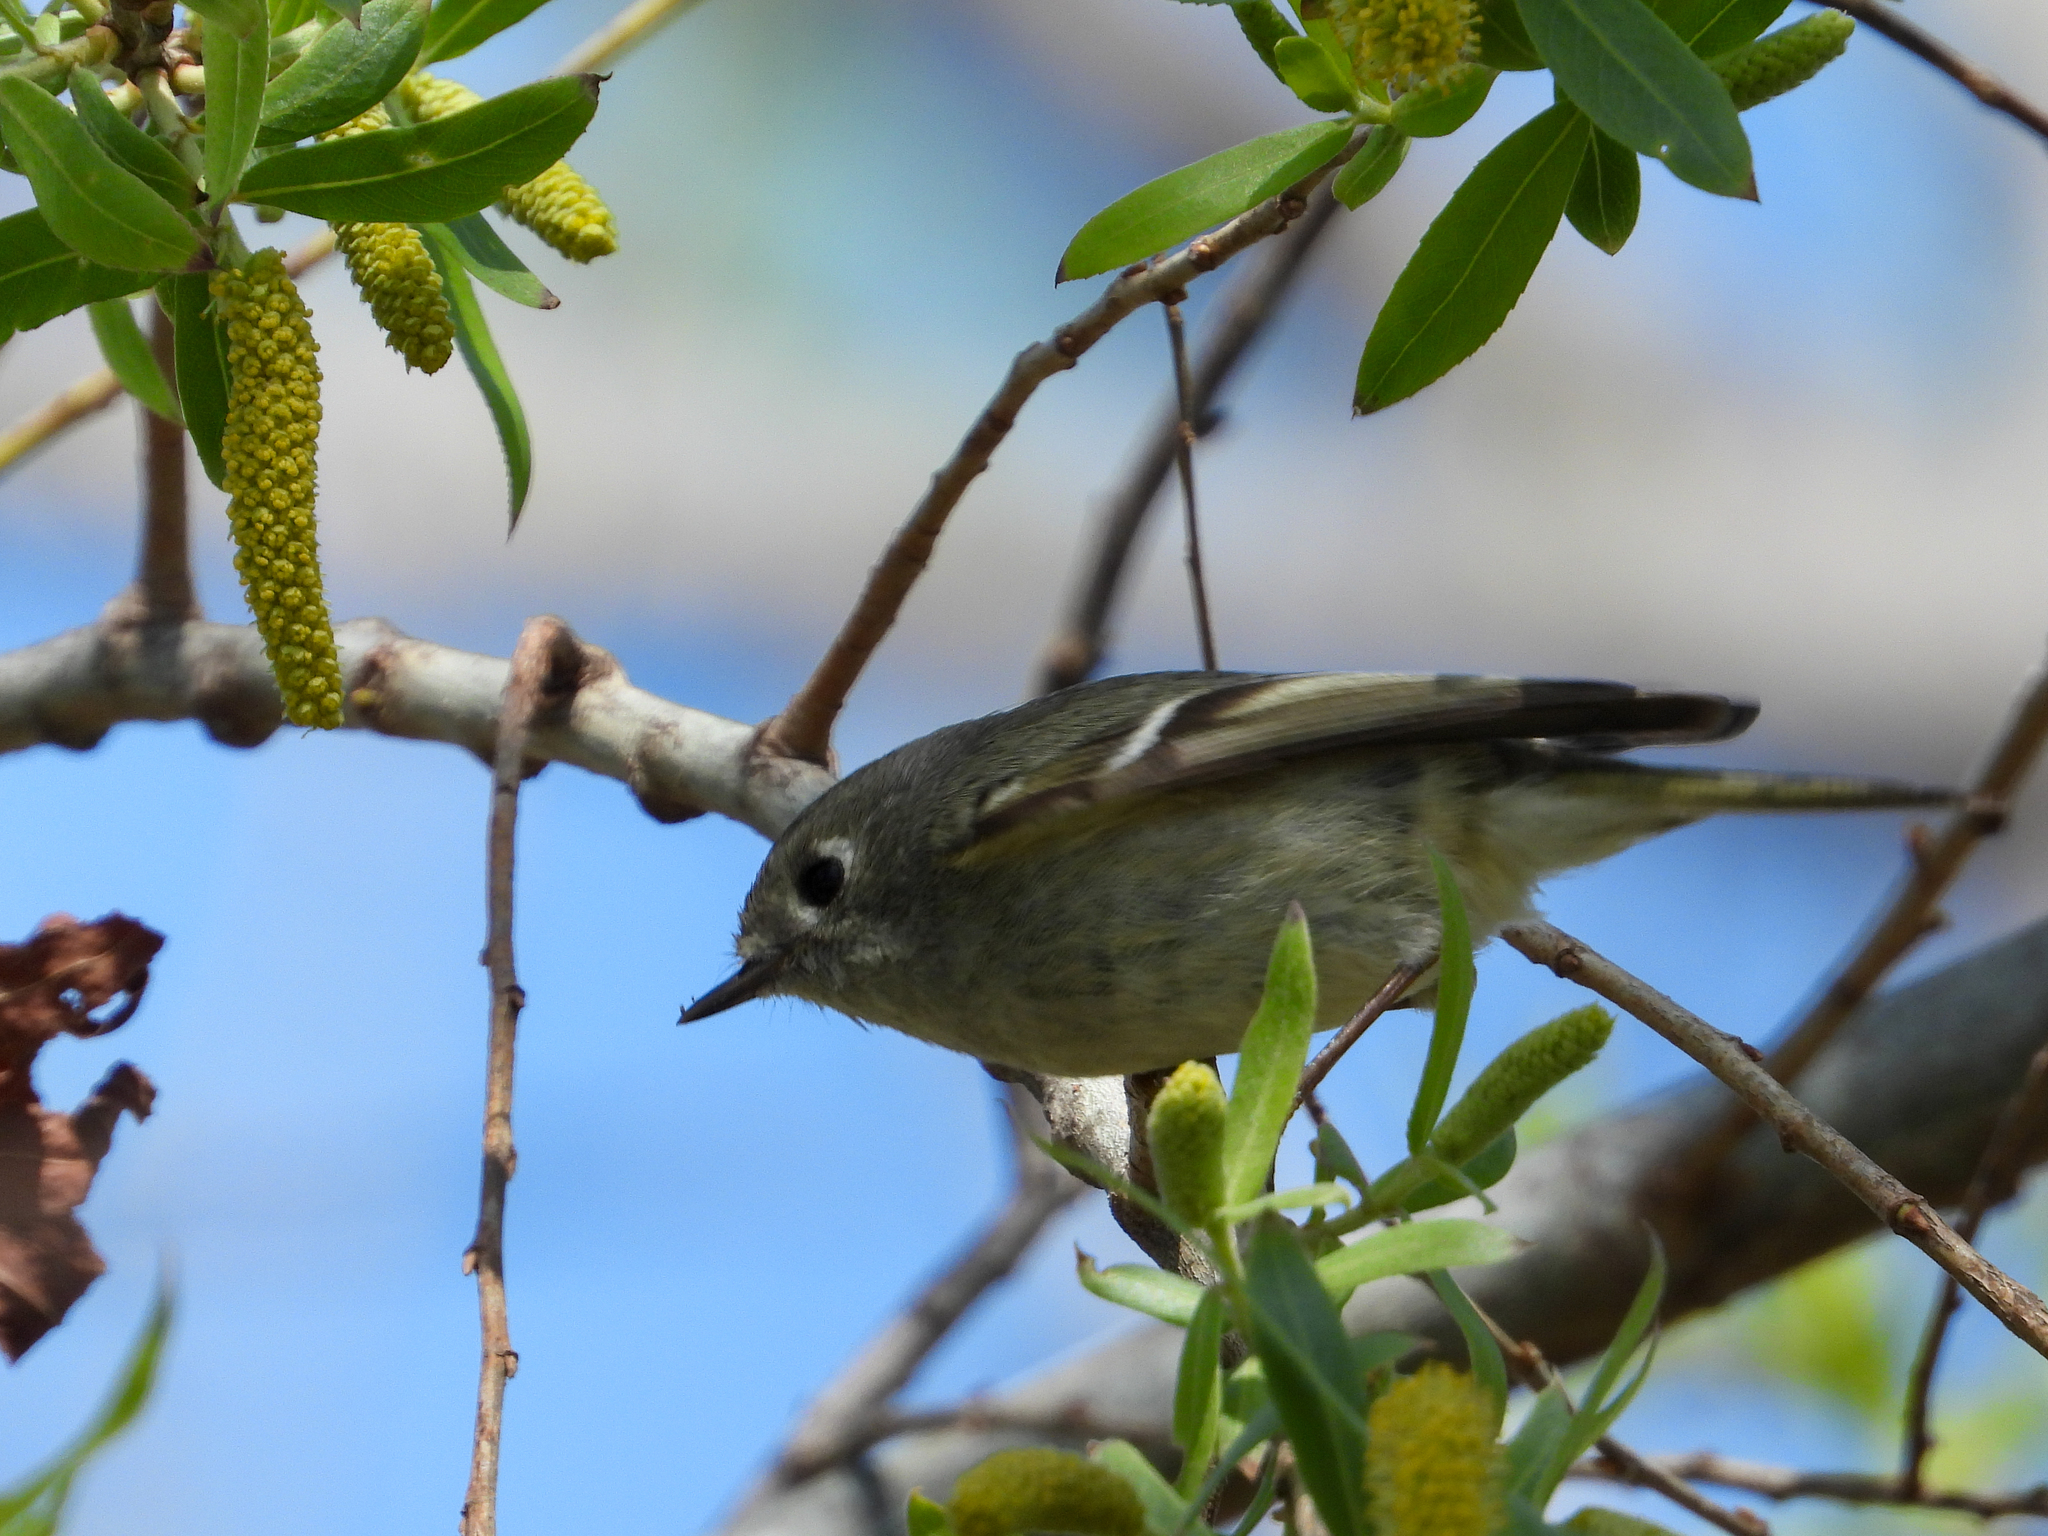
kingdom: Animalia
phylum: Chordata
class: Aves
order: Passeriformes
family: Regulidae
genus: Regulus
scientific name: Regulus calendula
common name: Ruby-crowned kinglet
